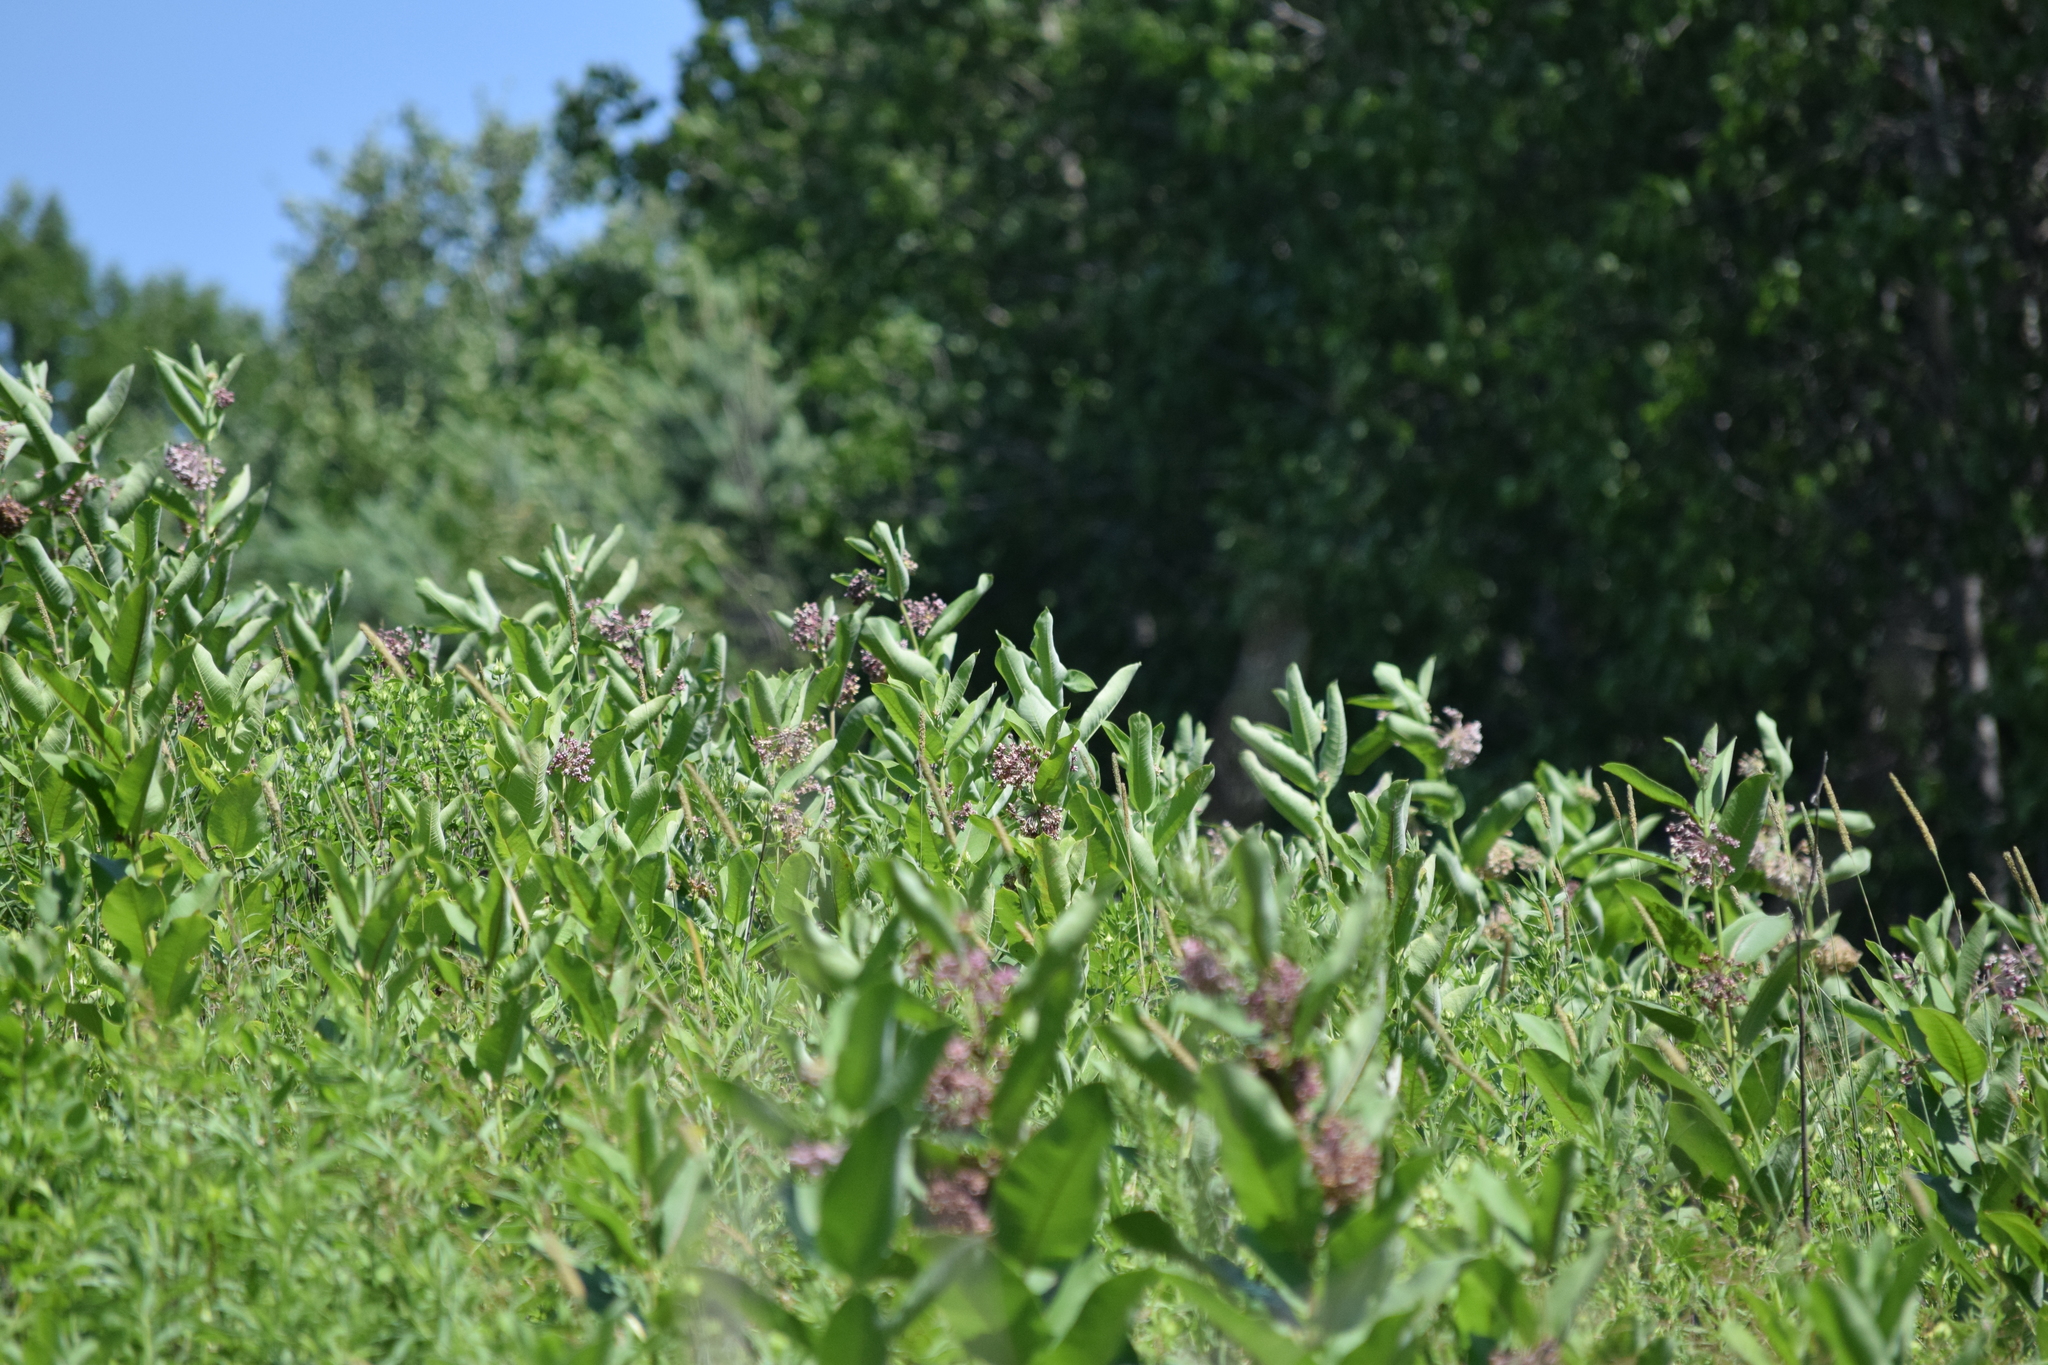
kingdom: Plantae
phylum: Tracheophyta
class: Magnoliopsida
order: Gentianales
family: Apocynaceae
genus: Asclepias
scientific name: Asclepias syriaca
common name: Common milkweed
